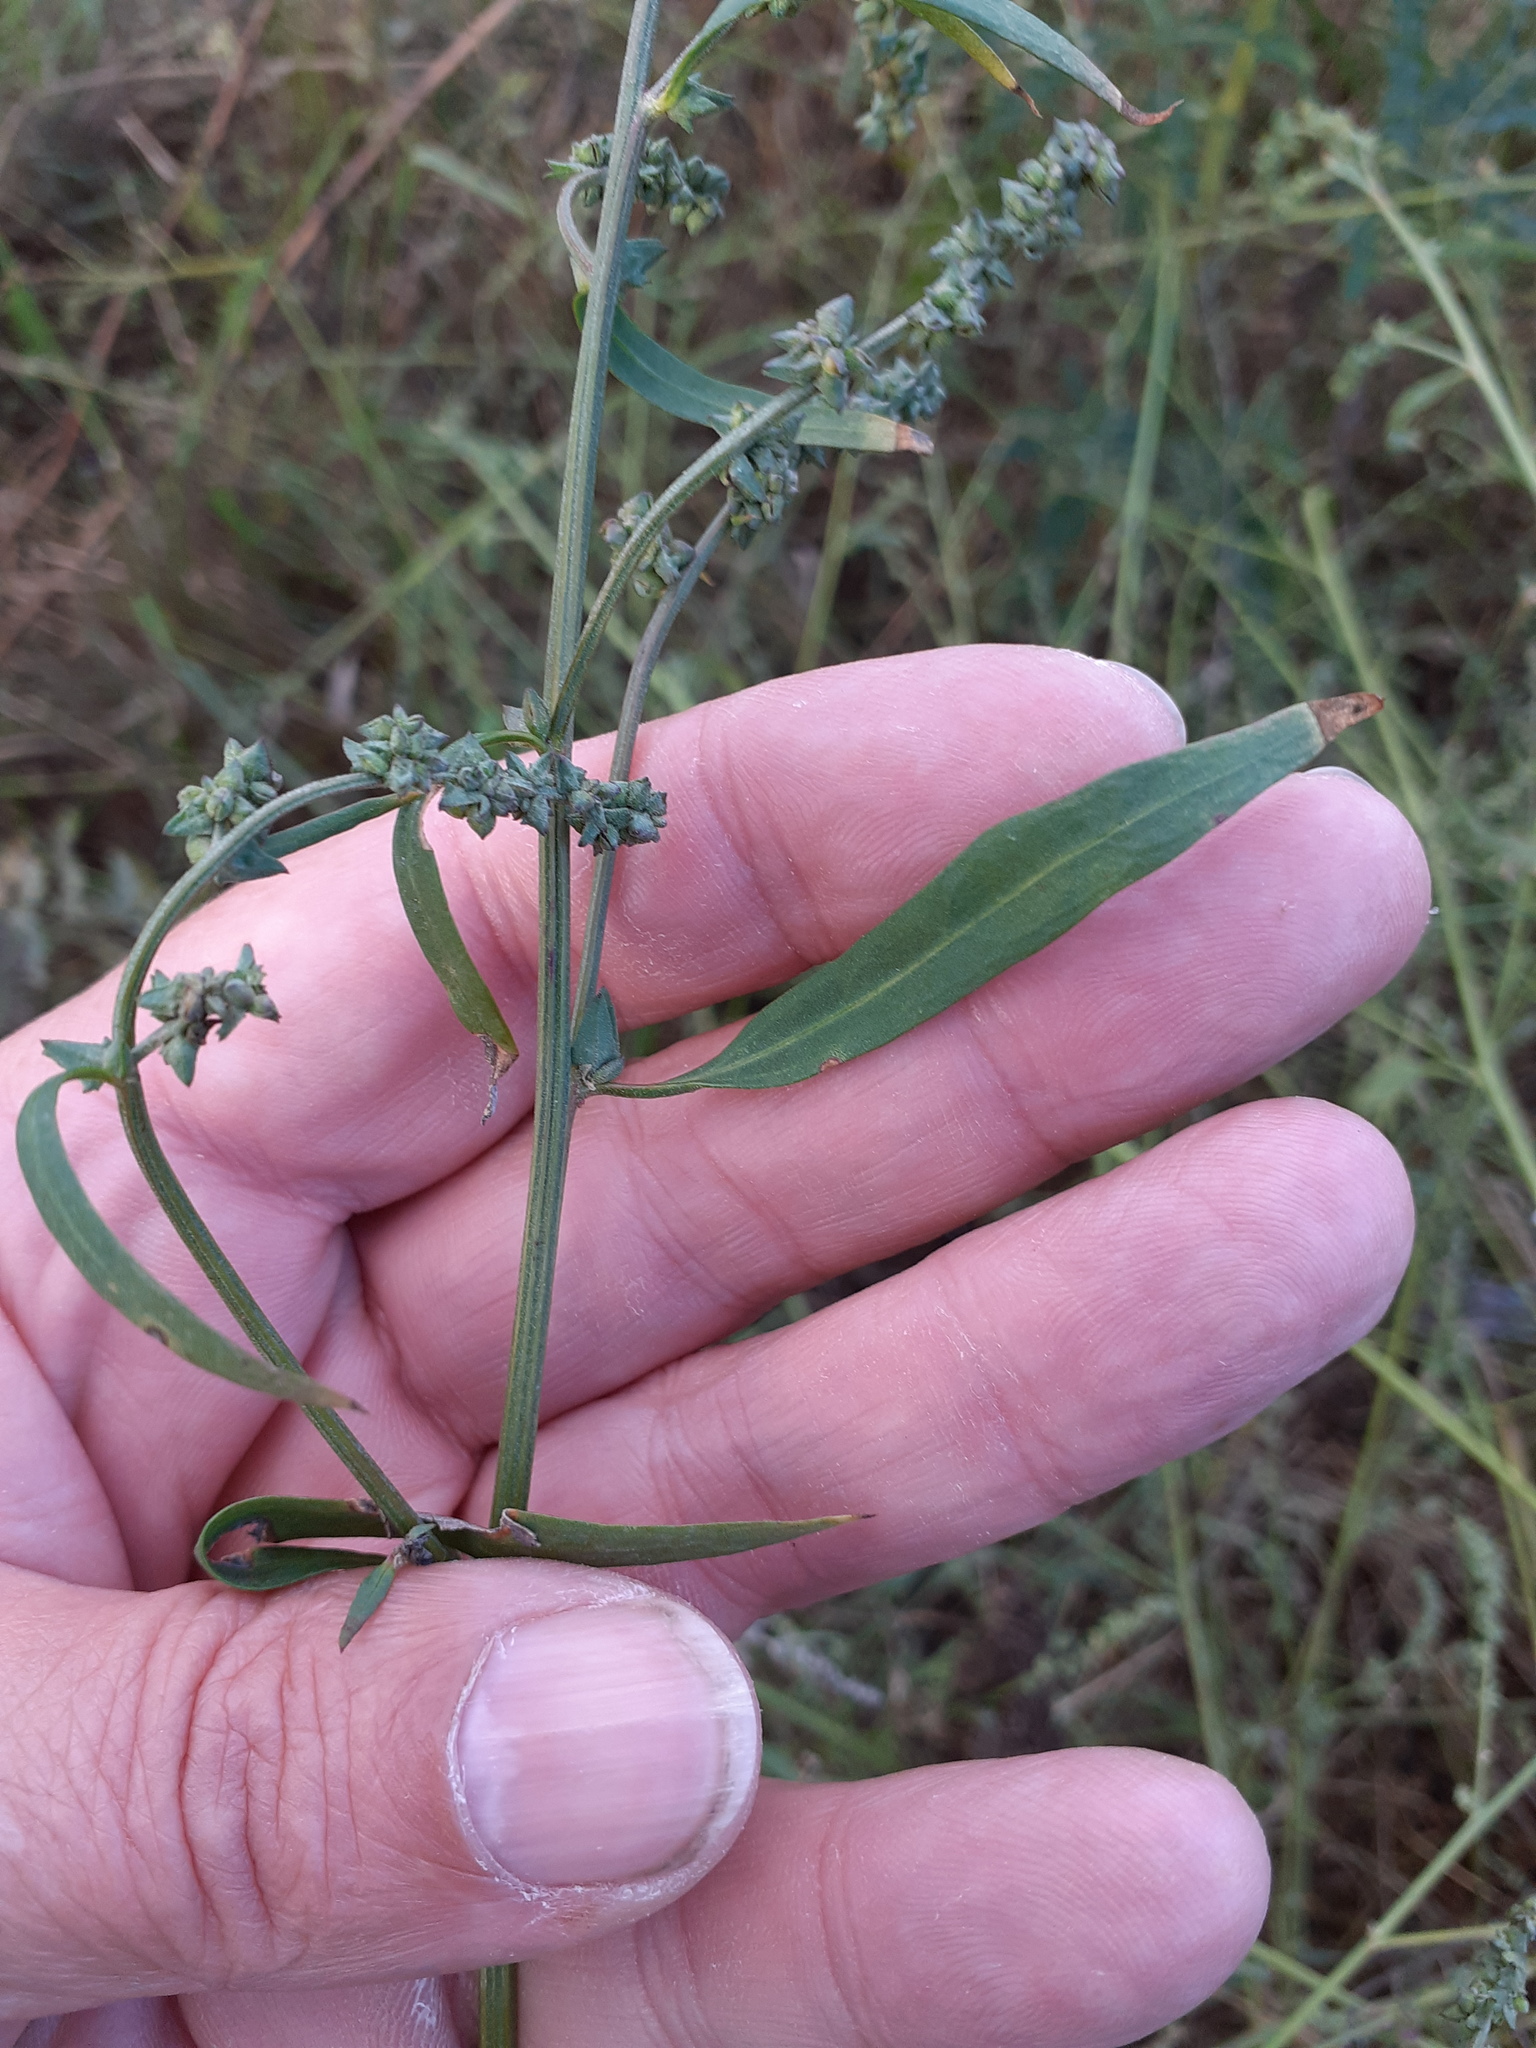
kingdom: Plantae
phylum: Tracheophyta
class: Magnoliopsida
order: Caryophyllales
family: Amaranthaceae
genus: Atriplex
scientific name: Atriplex patula
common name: Common orache
